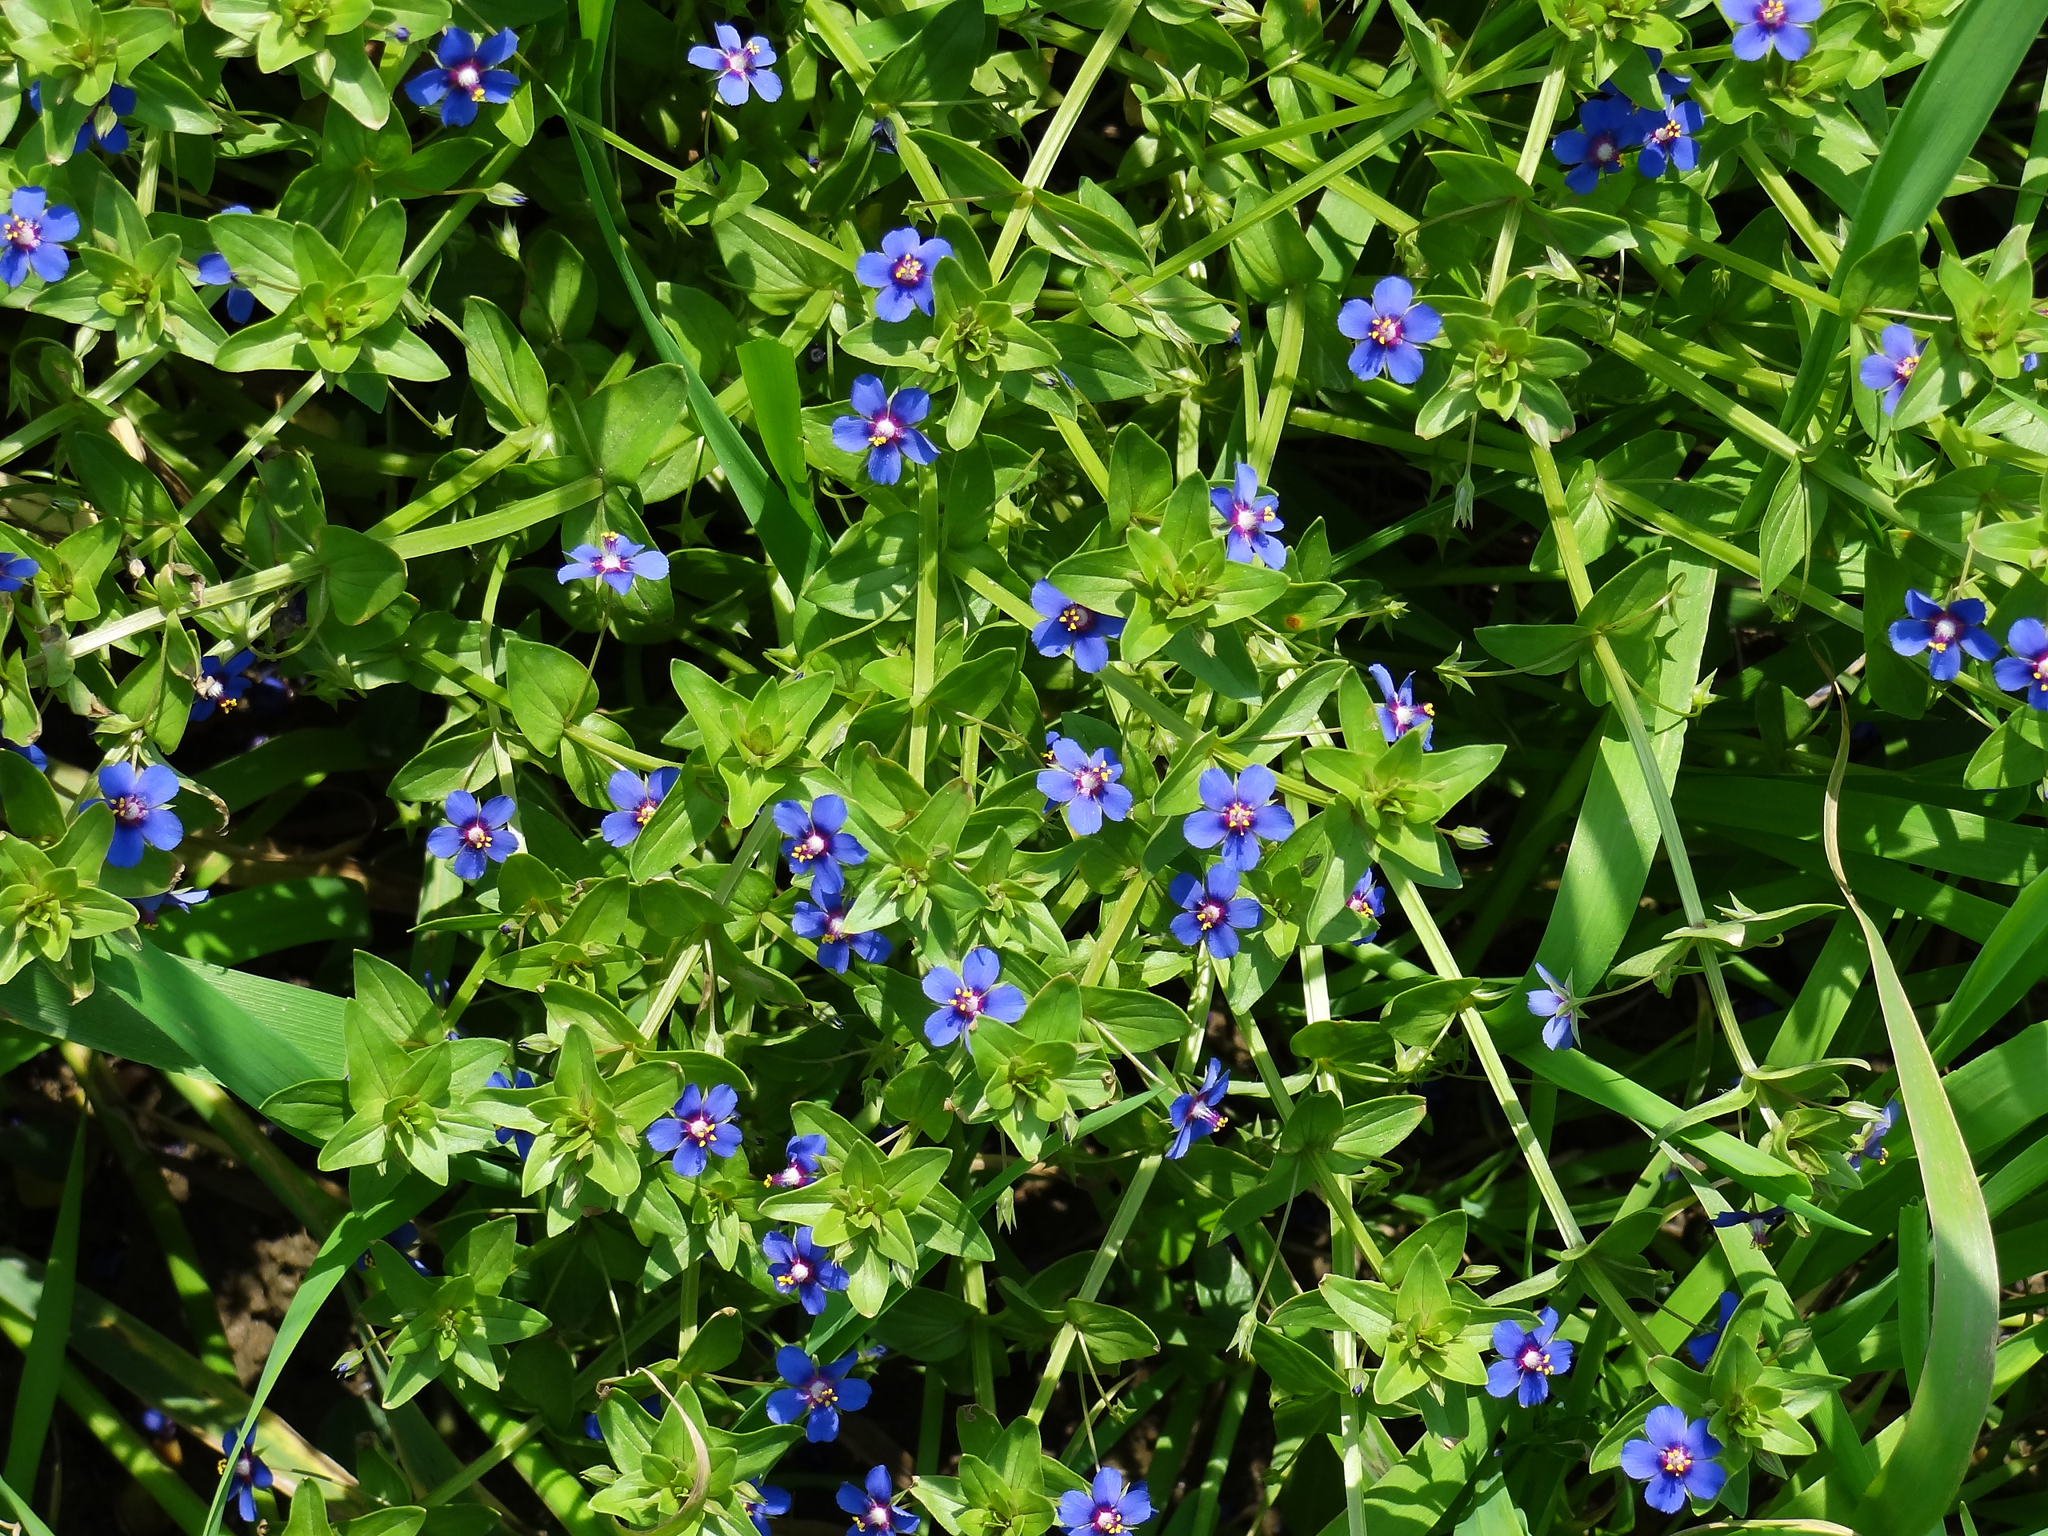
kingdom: Plantae
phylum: Tracheophyta
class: Magnoliopsida
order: Ericales
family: Primulaceae
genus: Lysimachia
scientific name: Lysimachia loeflingii
